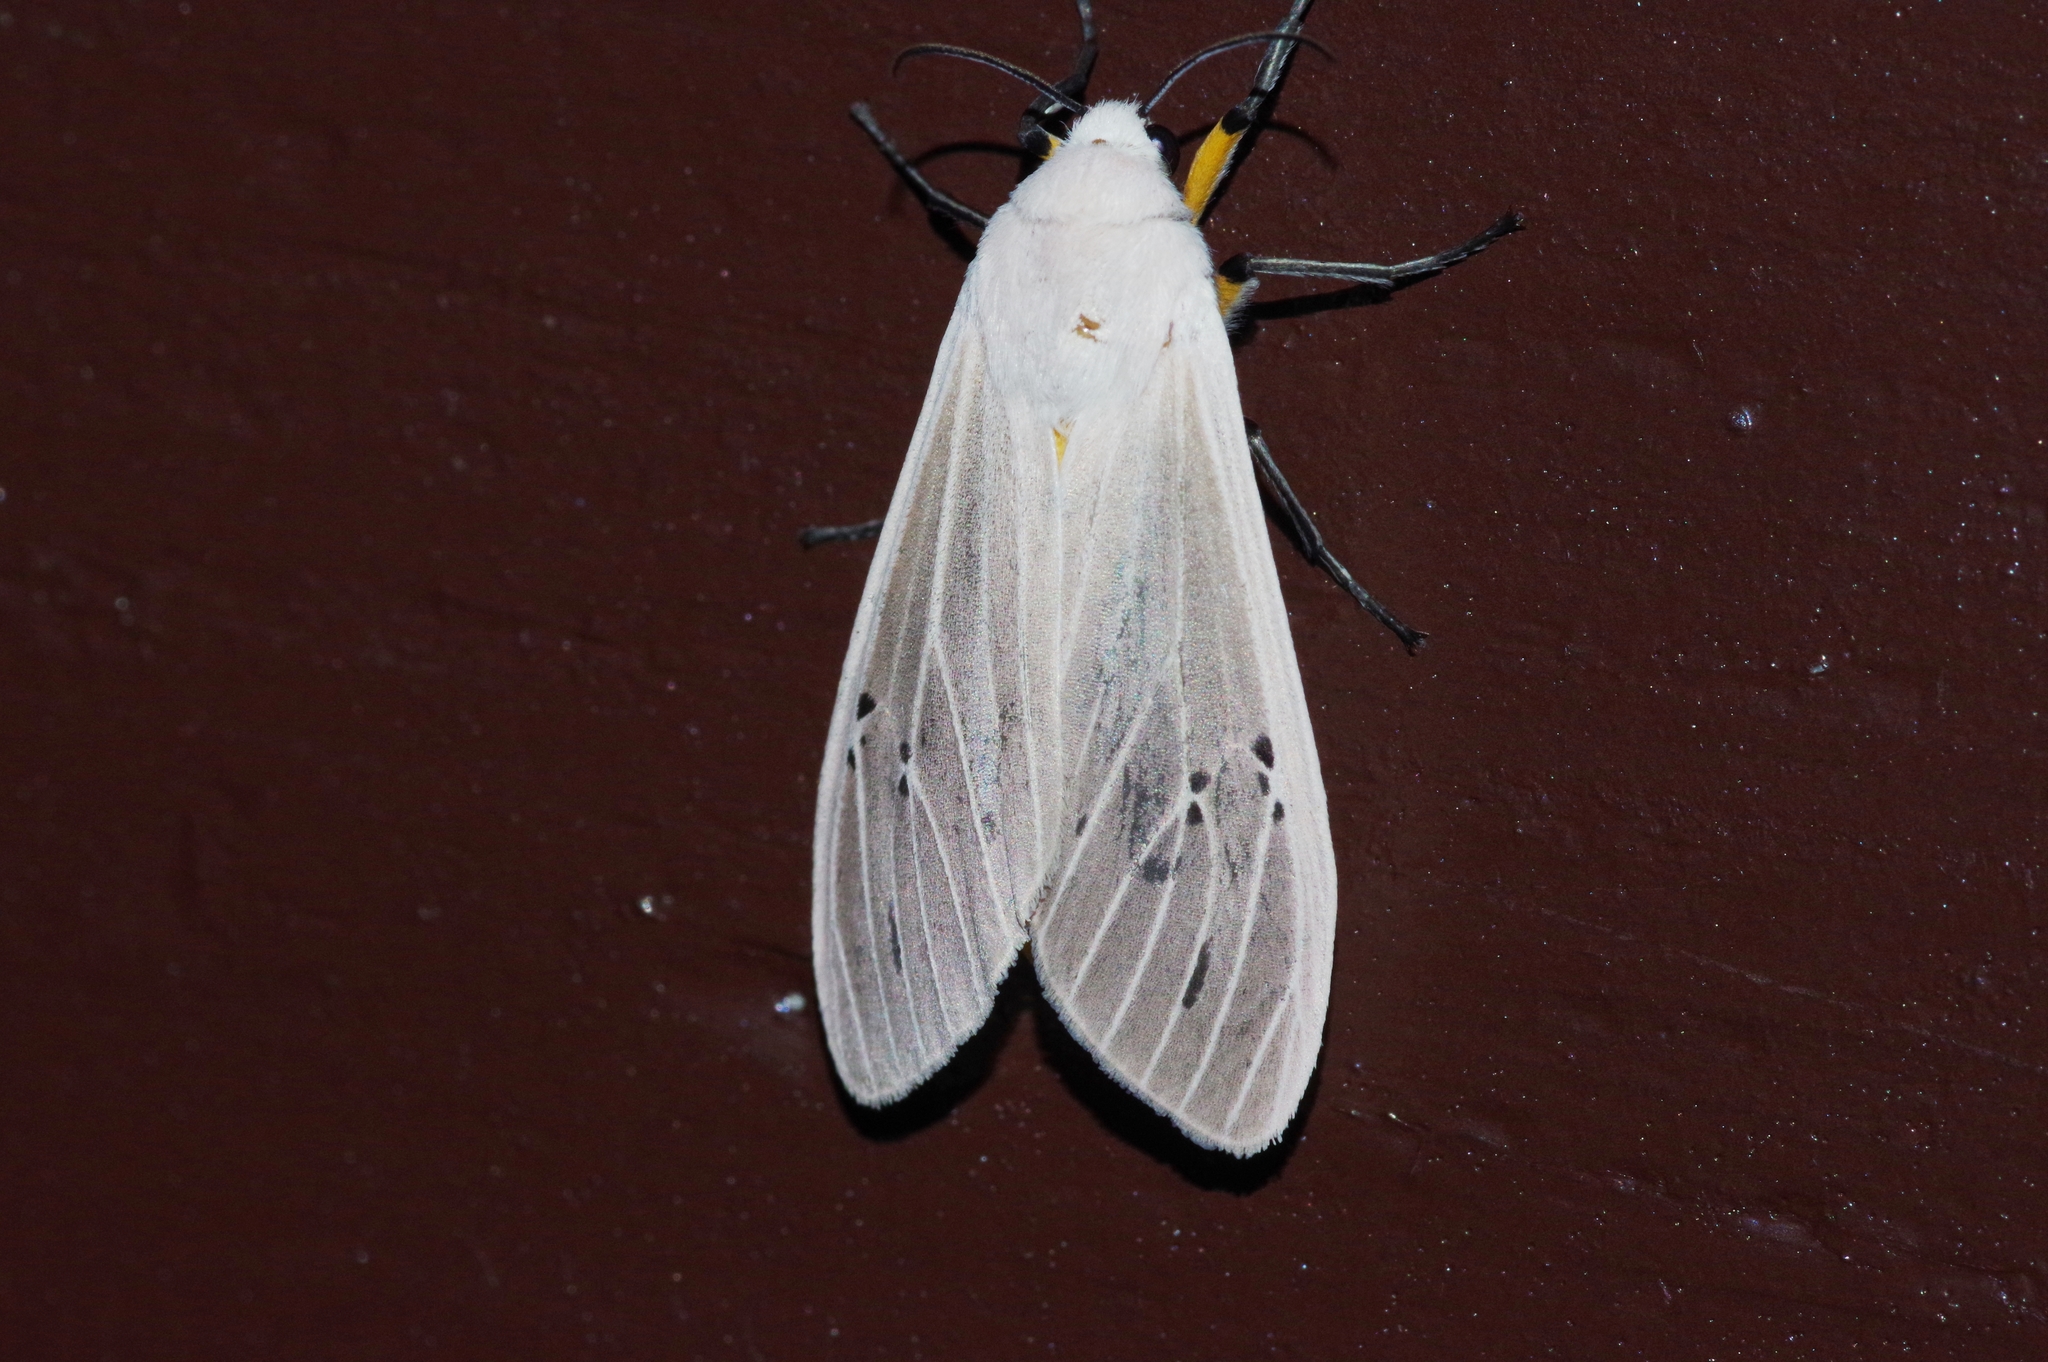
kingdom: Animalia
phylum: Arthropoda
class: Insecta
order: Lepidoptera
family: Erebidae
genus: Creatonotos
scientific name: Creatonotos transiens
